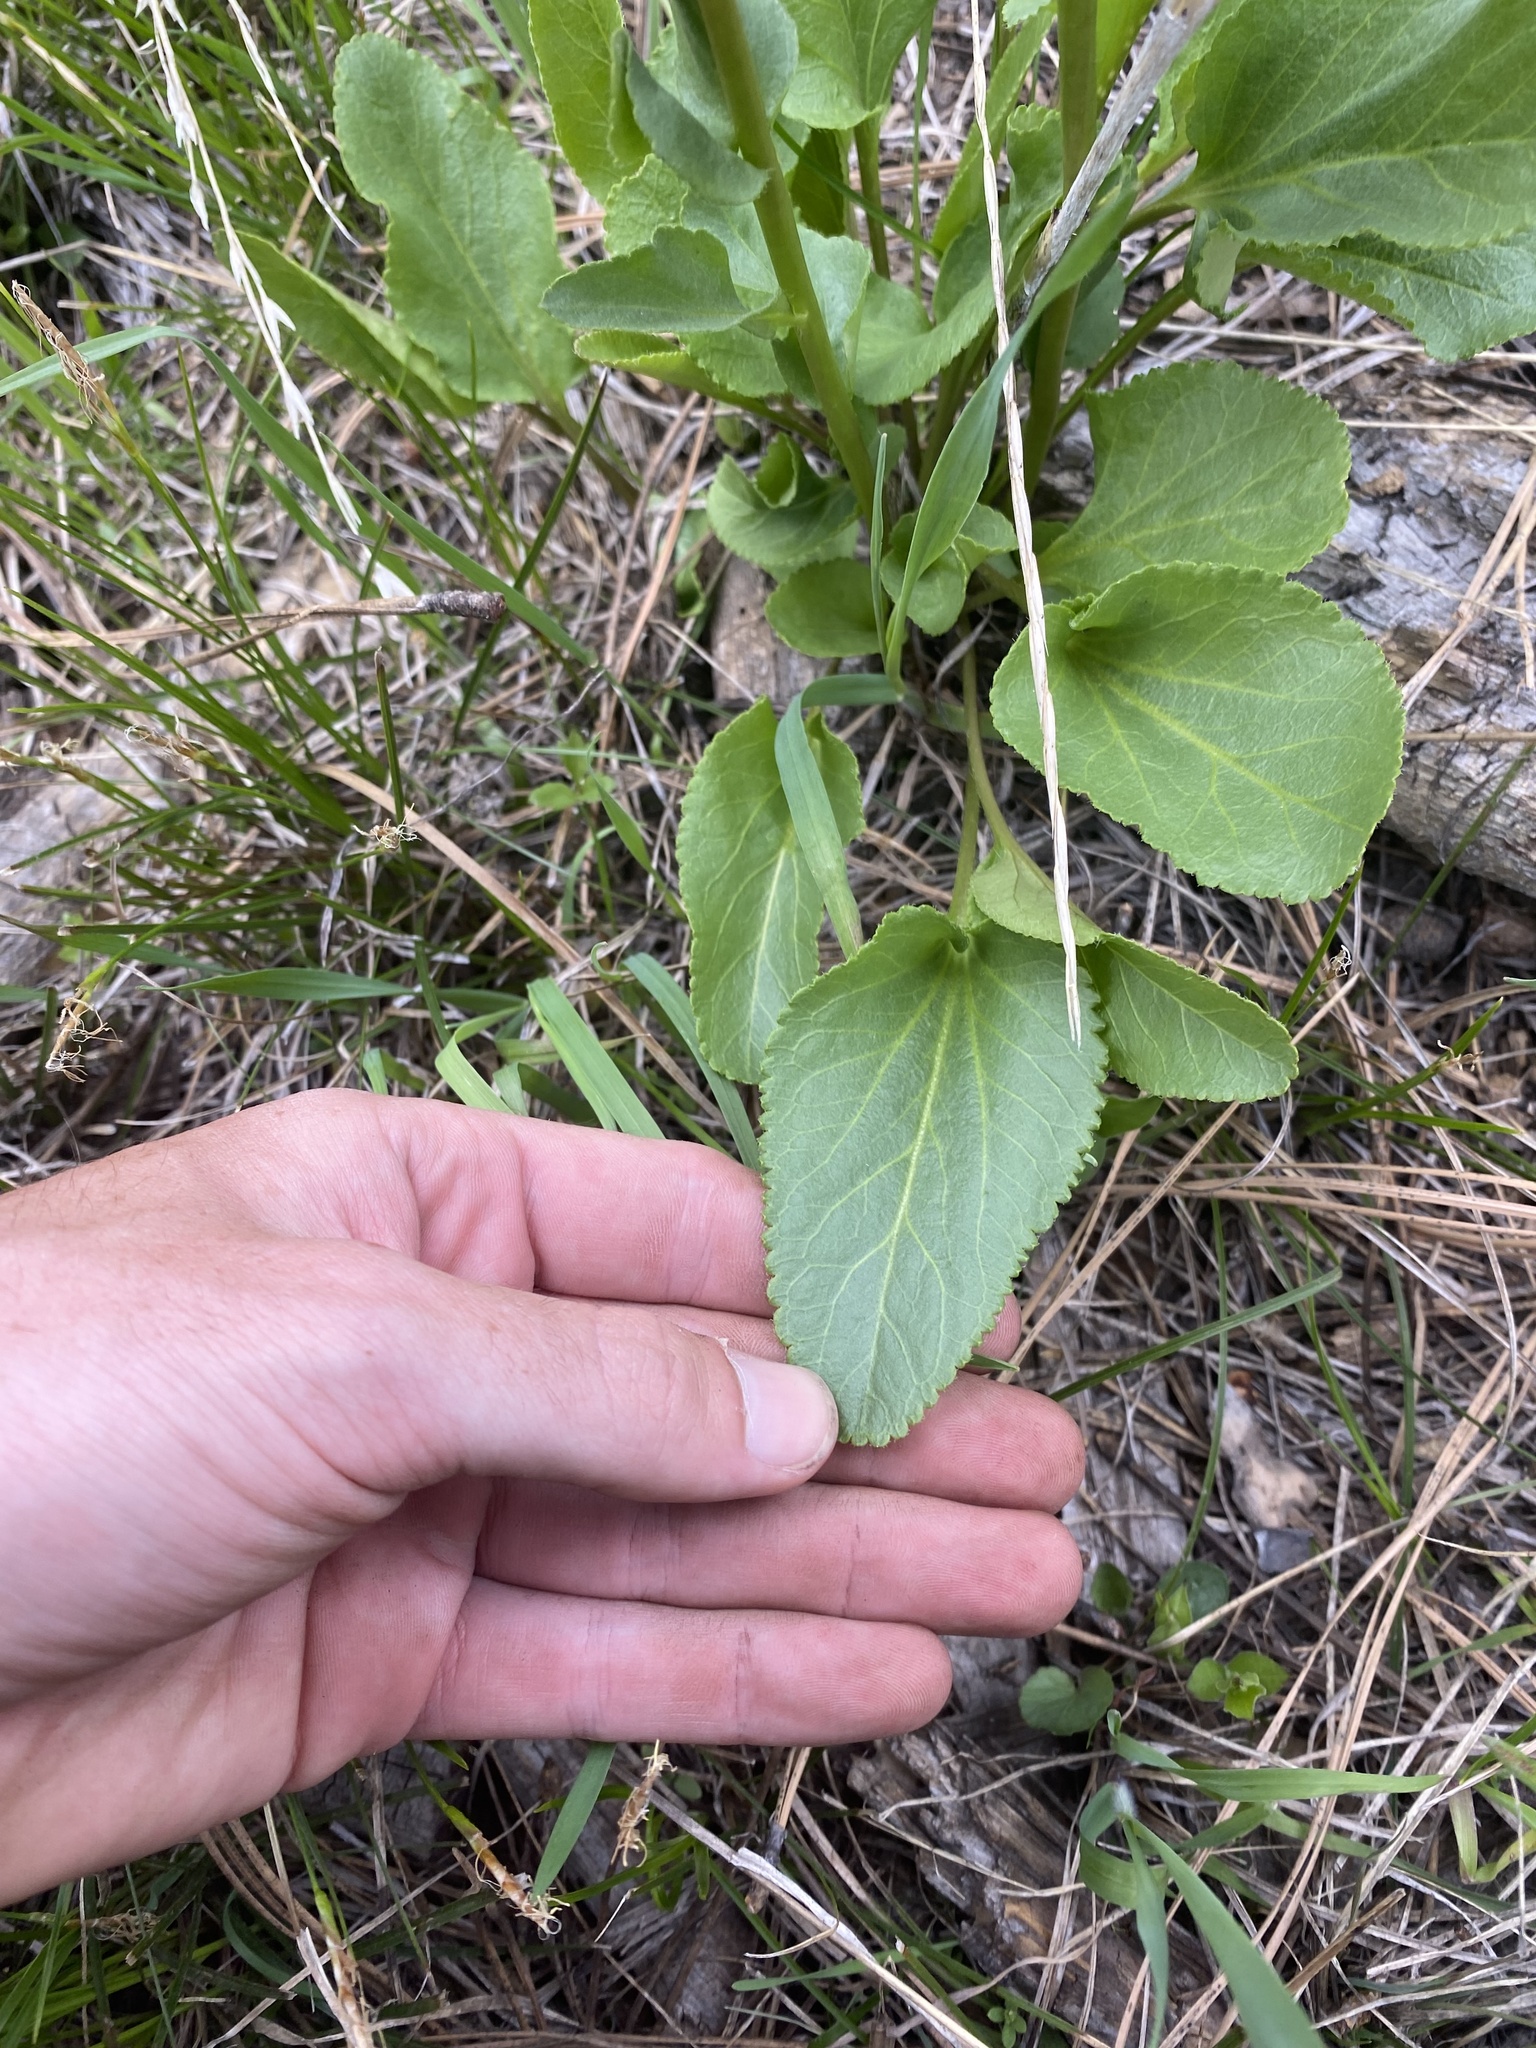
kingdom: Plantae
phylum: Tracheophyta
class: Magnoliopsida
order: Lamiales
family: Plantaginaceae
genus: Synthyris
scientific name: Synthyris rubra
